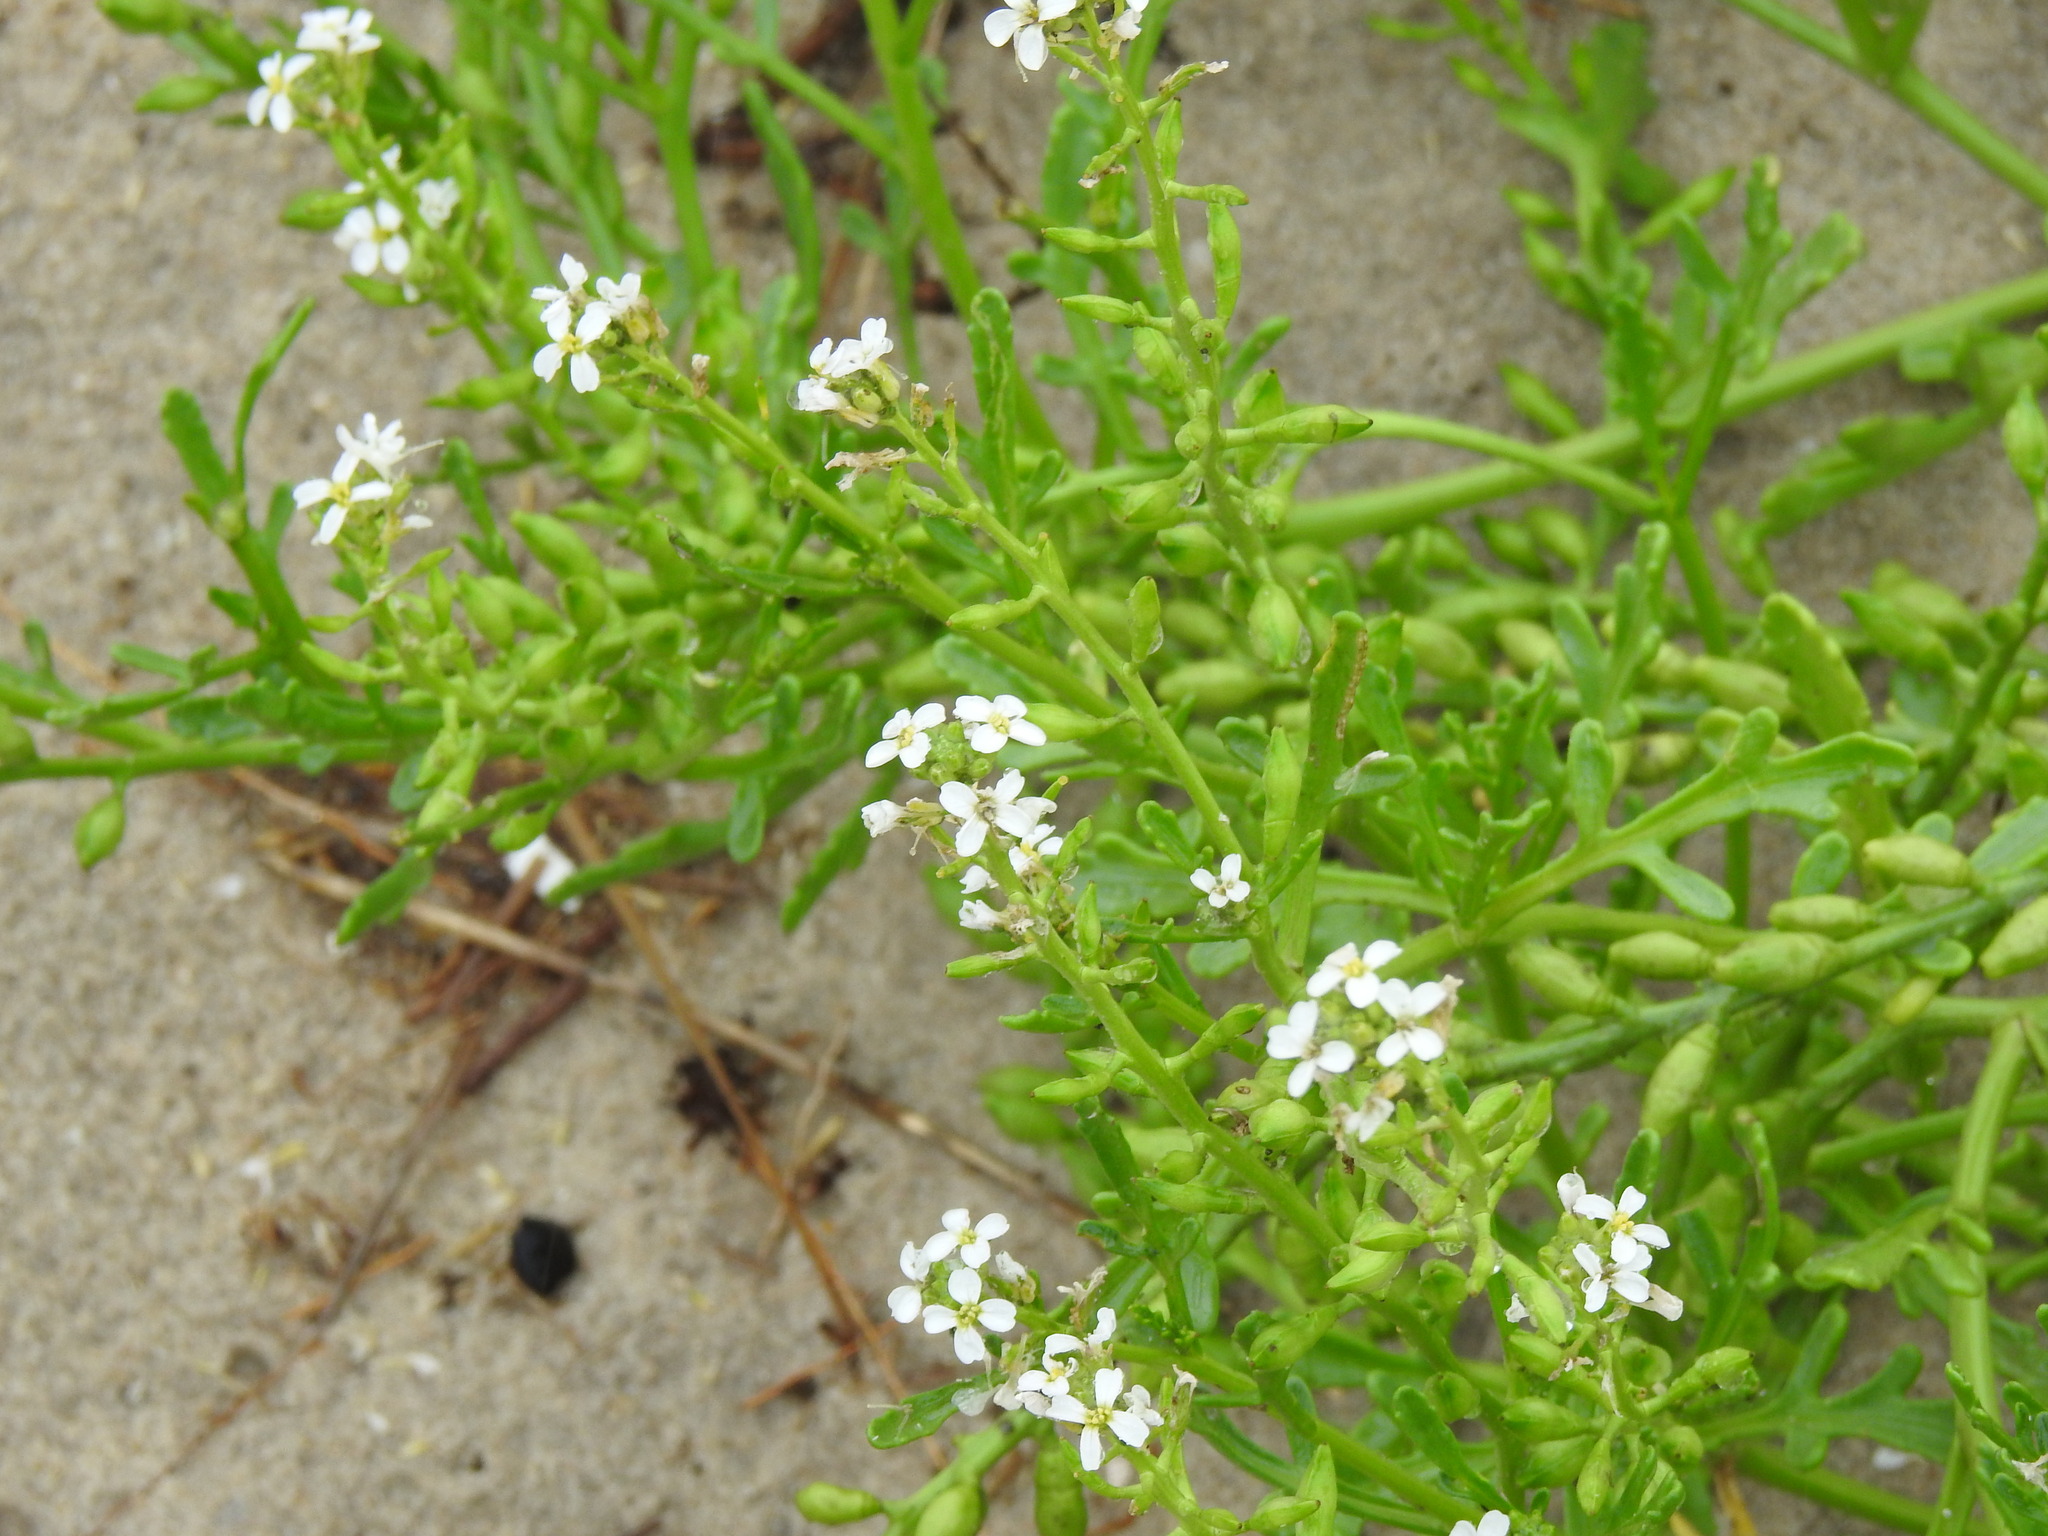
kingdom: Plantae
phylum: Tracheophyta
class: Magnoliopsida
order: Brassicales
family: Brassicaceae
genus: Cakile
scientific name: Cakile maritima
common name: Sea rocket
